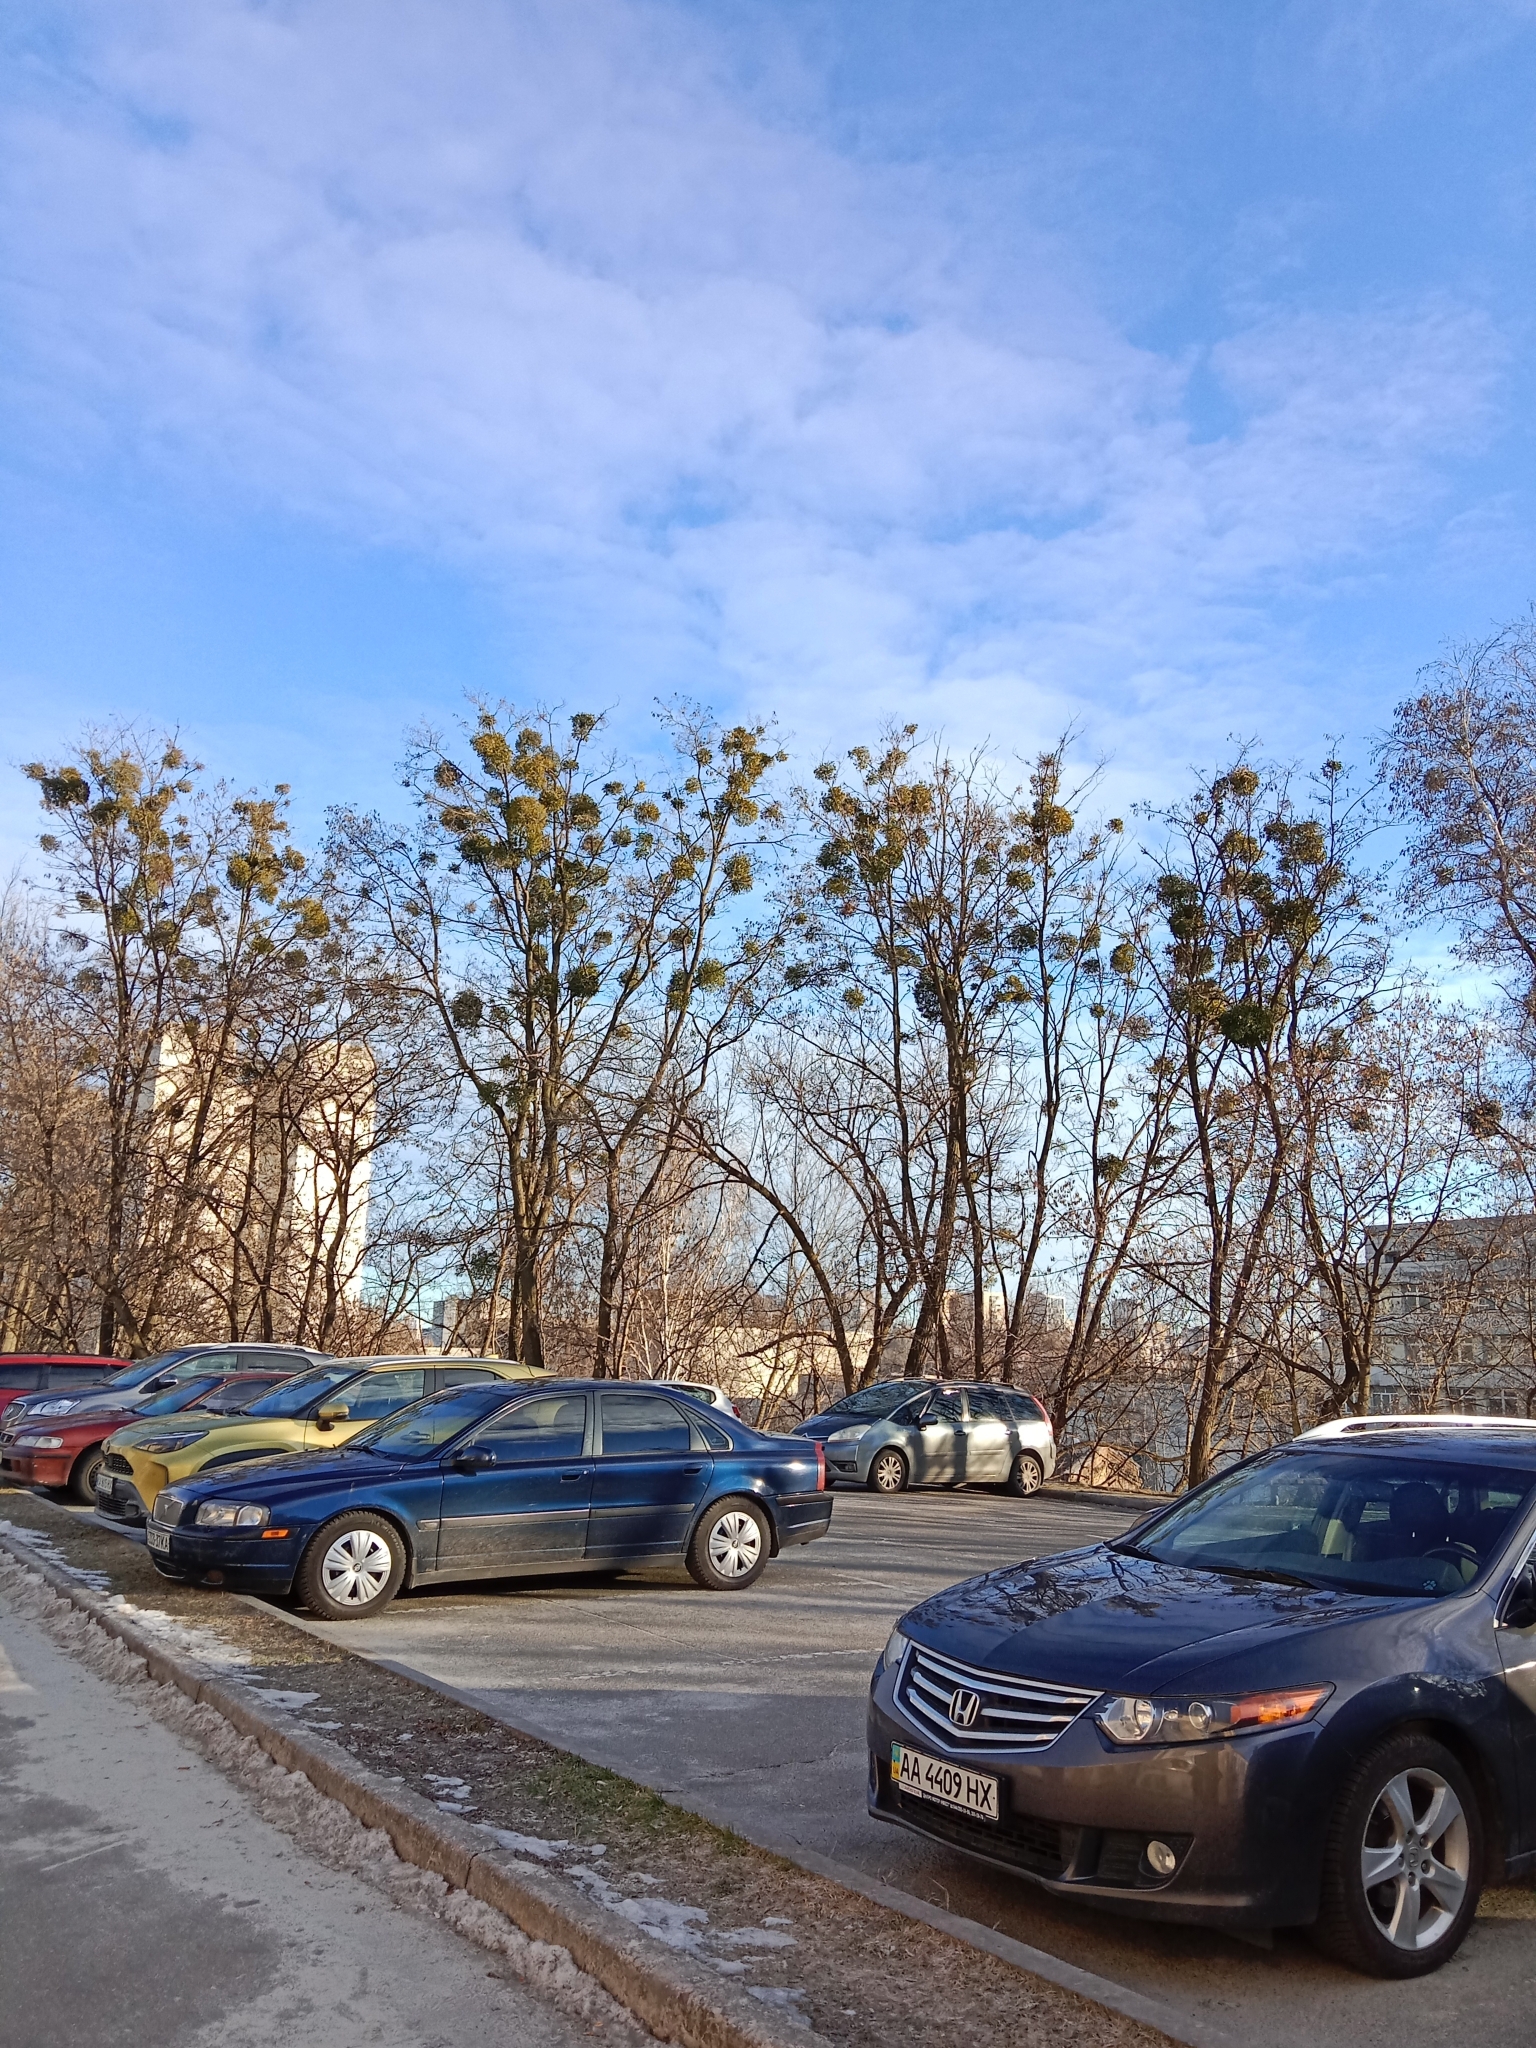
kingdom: Plantae
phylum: Tracheophyta
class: Magnoliopsida
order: Santalales
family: Viscaceae
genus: Viscum
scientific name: Viscum album
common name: Mistletoe
